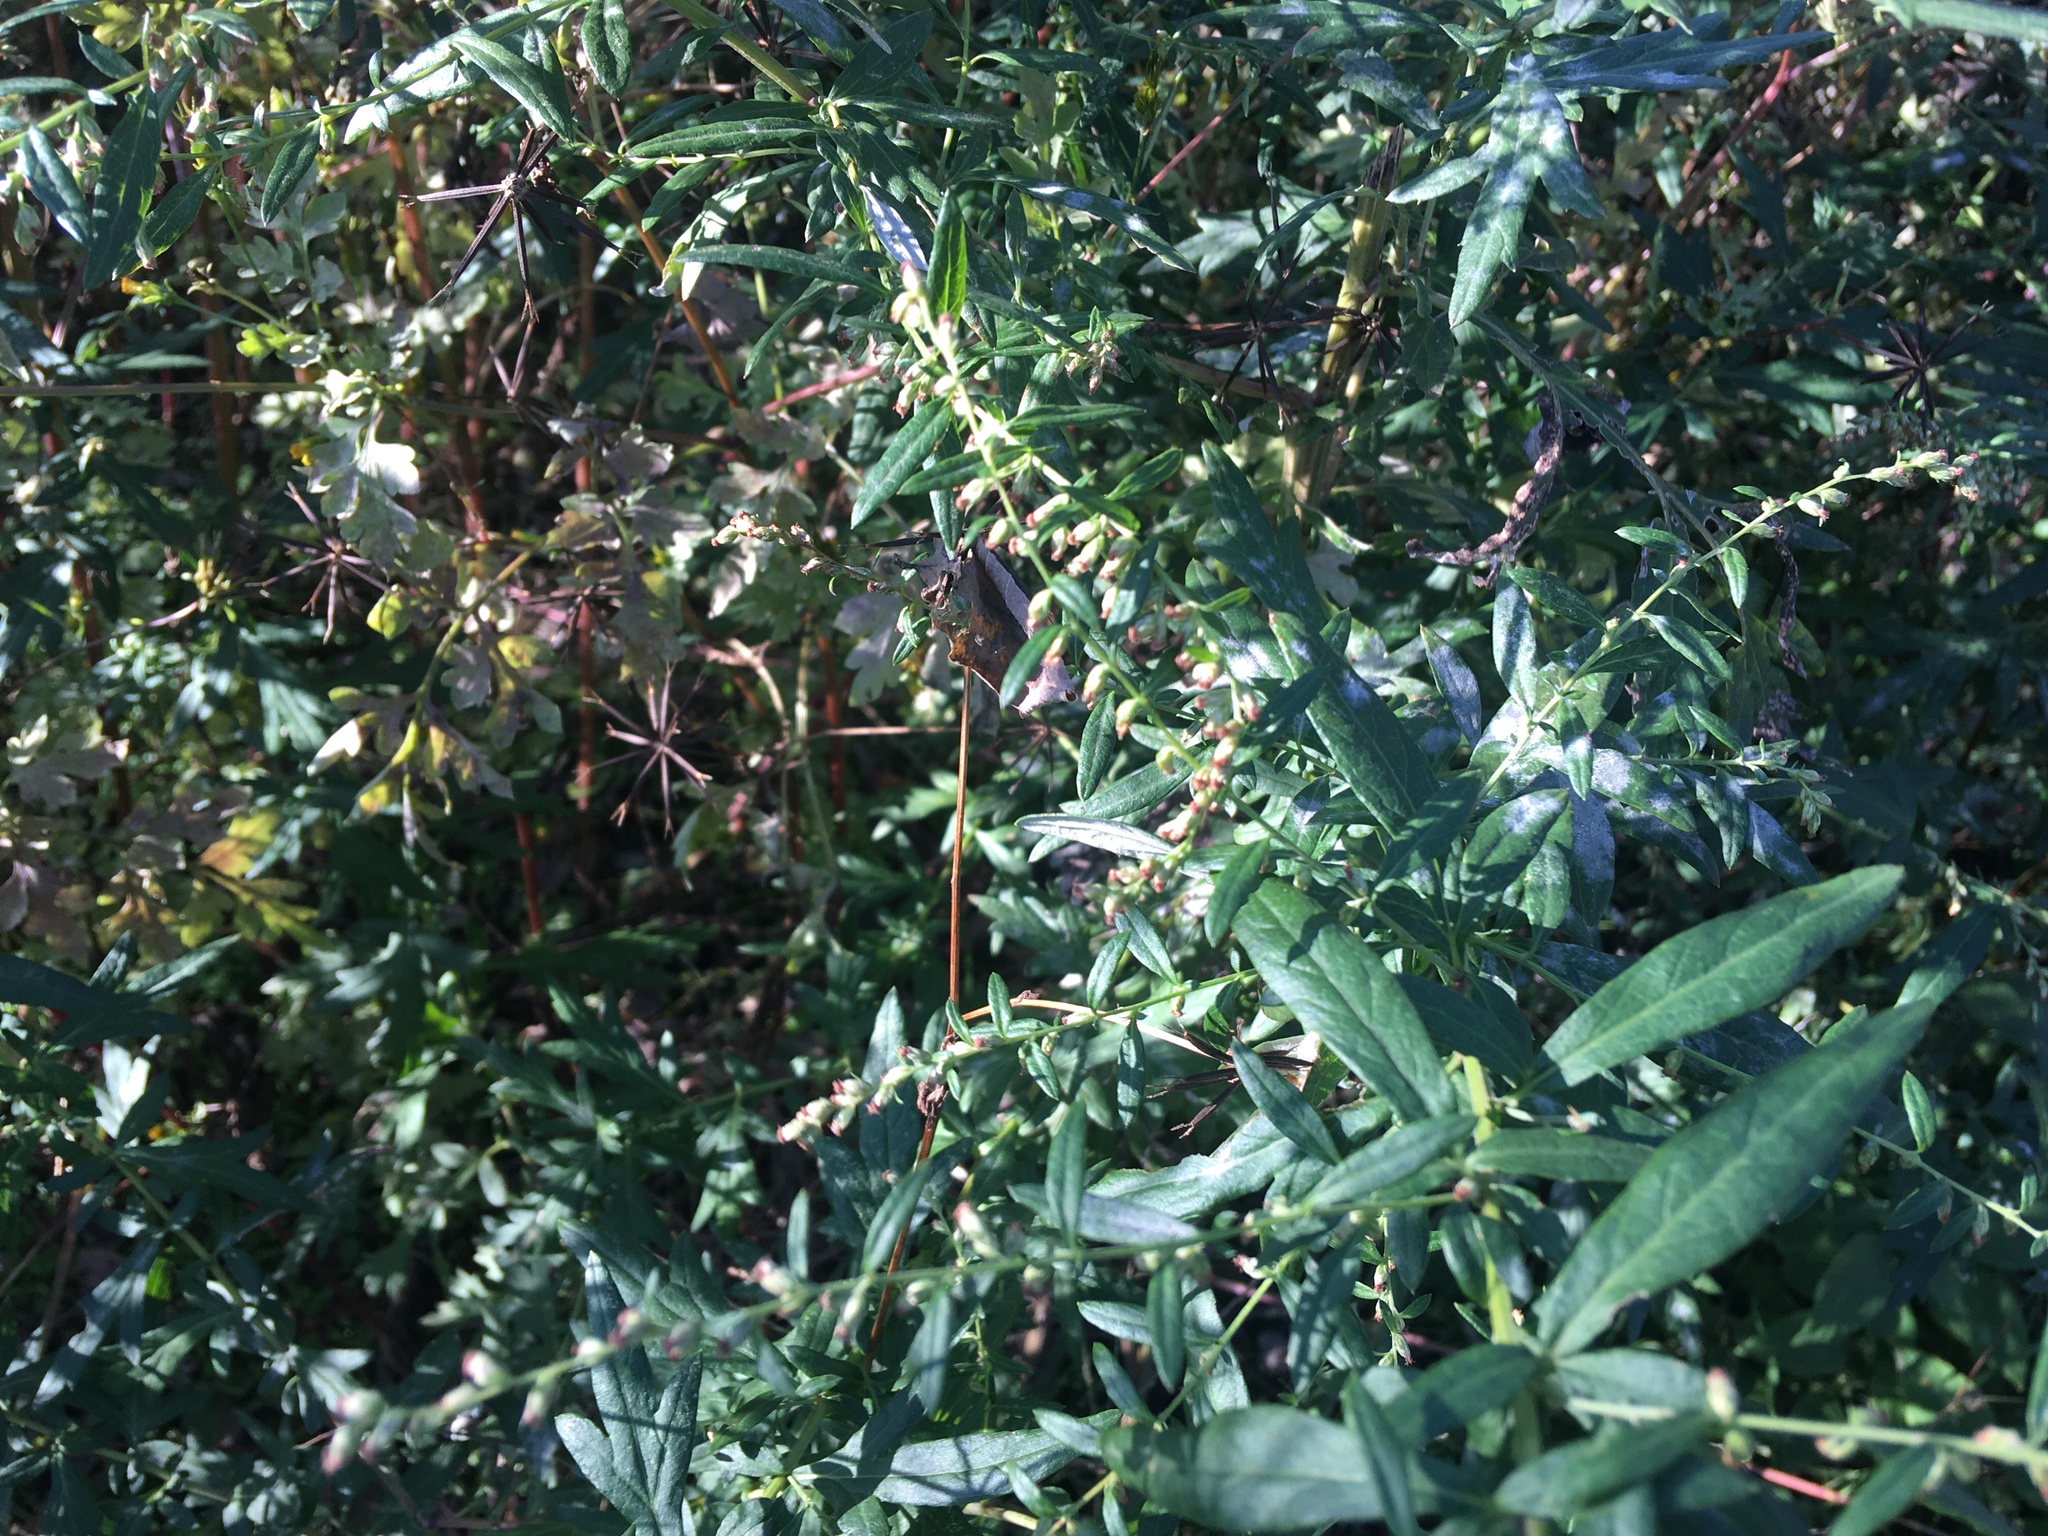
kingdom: Plantae
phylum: Tracheophyta
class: Magnoliopsida
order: Asterales
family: Asteraceae
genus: Artemisia
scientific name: Artemisia vulgaris
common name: Mugwort
